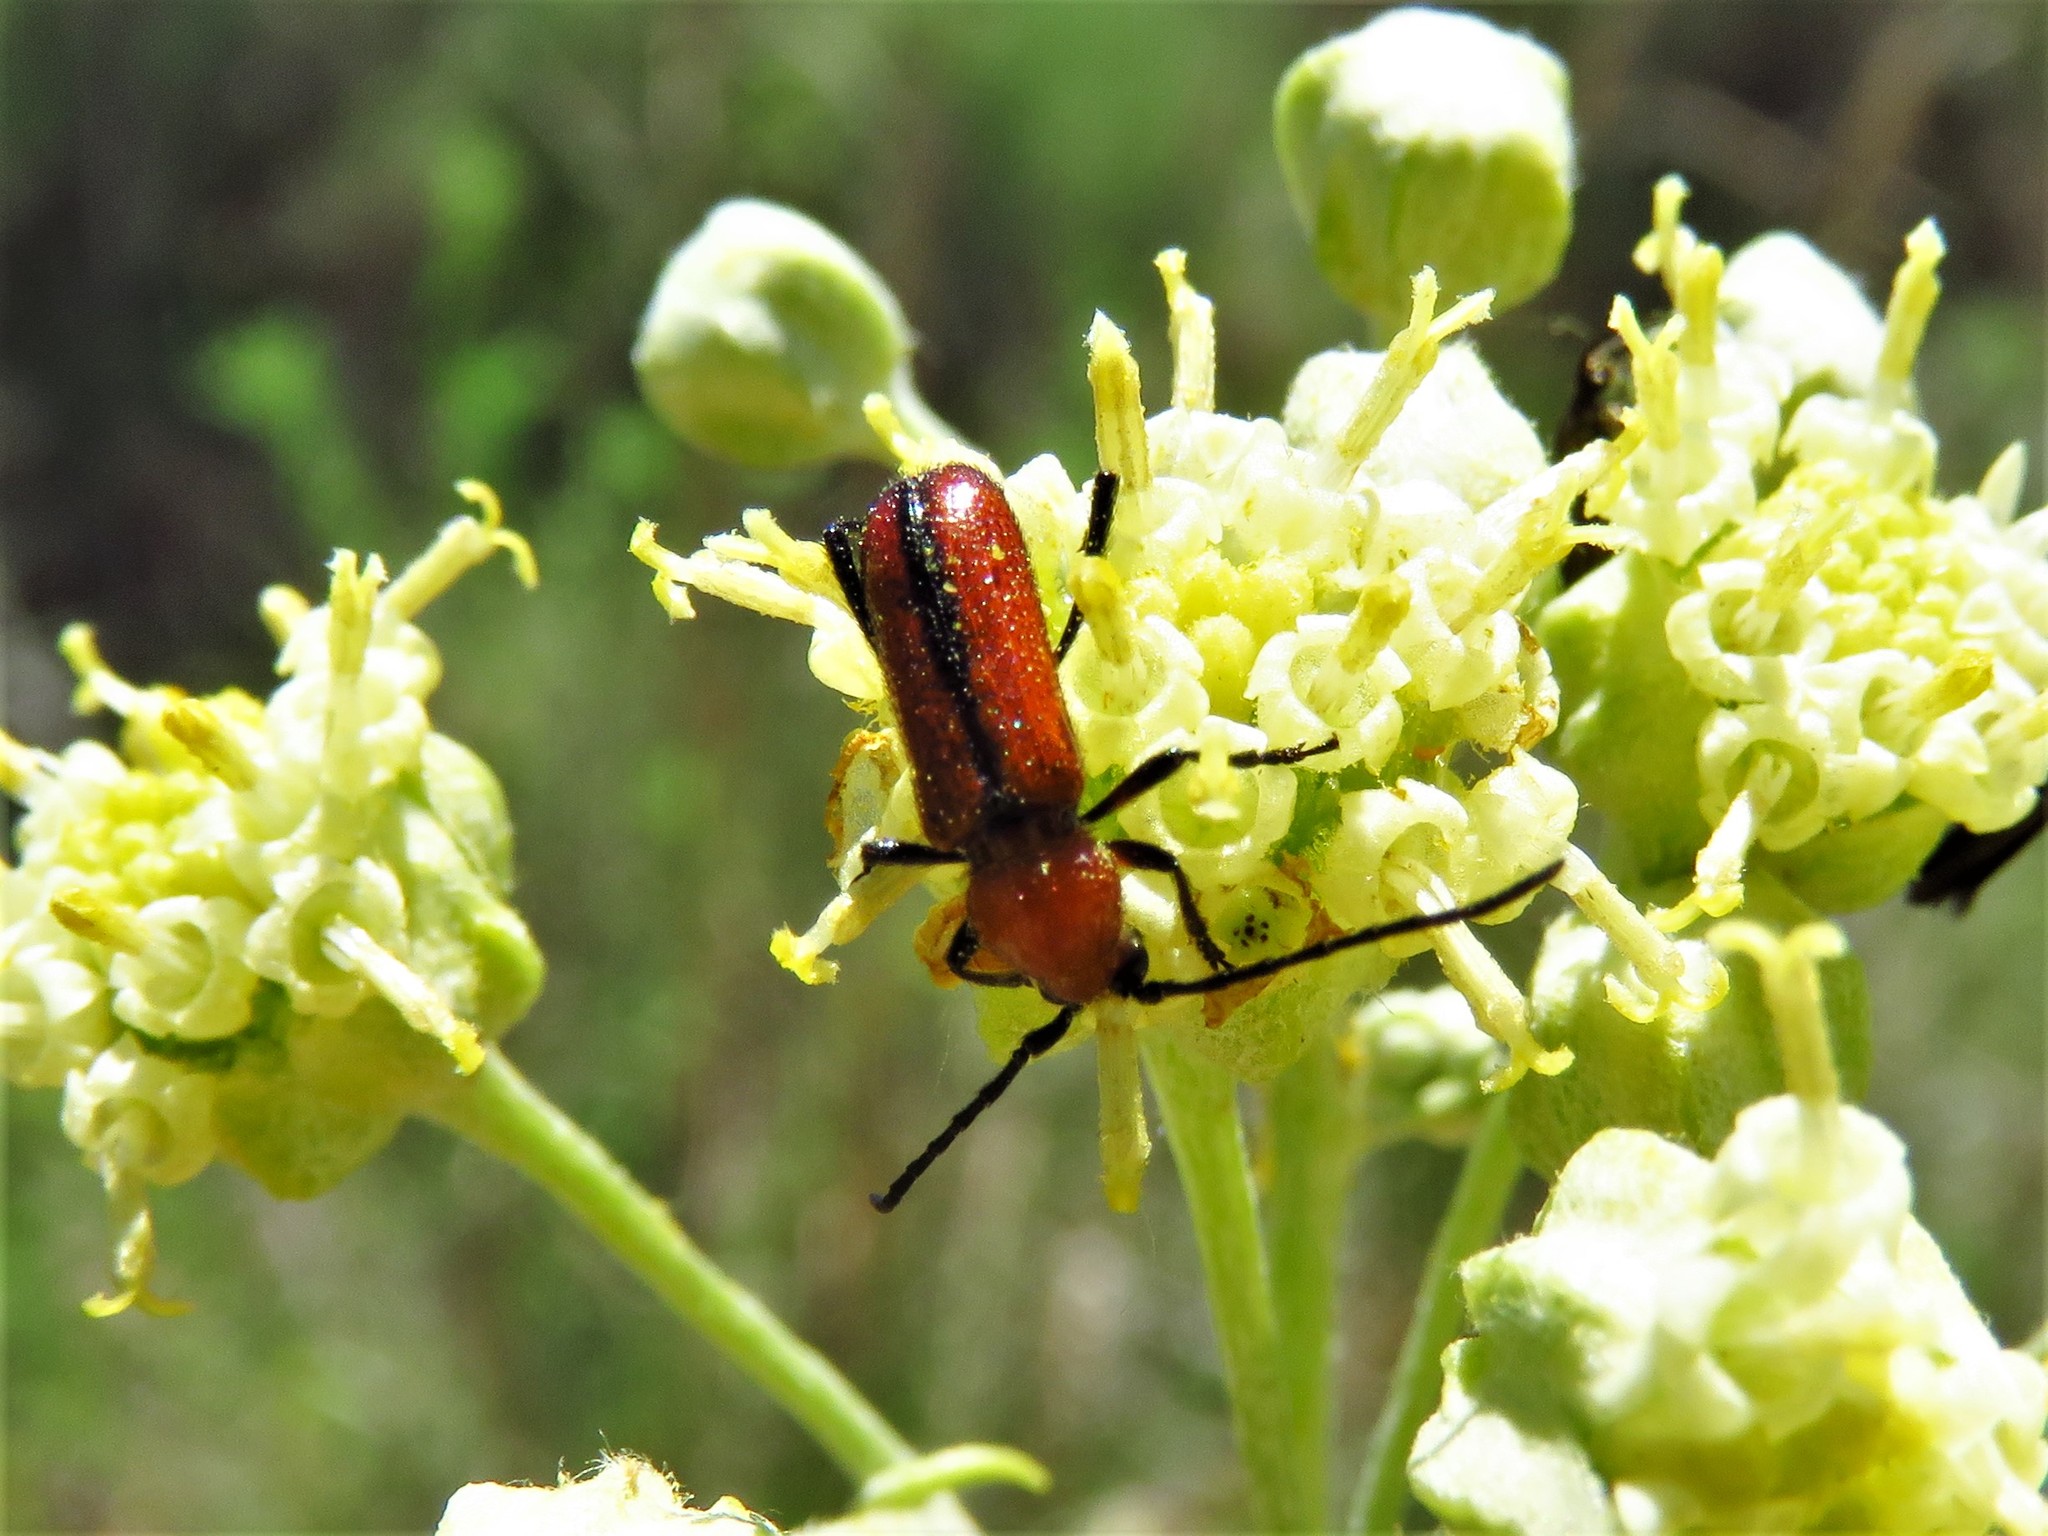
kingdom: Animalia
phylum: Arthropoda
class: Insecta
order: Coleoptera
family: Cerambycidae
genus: Batyle
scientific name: Batyle suturalis
